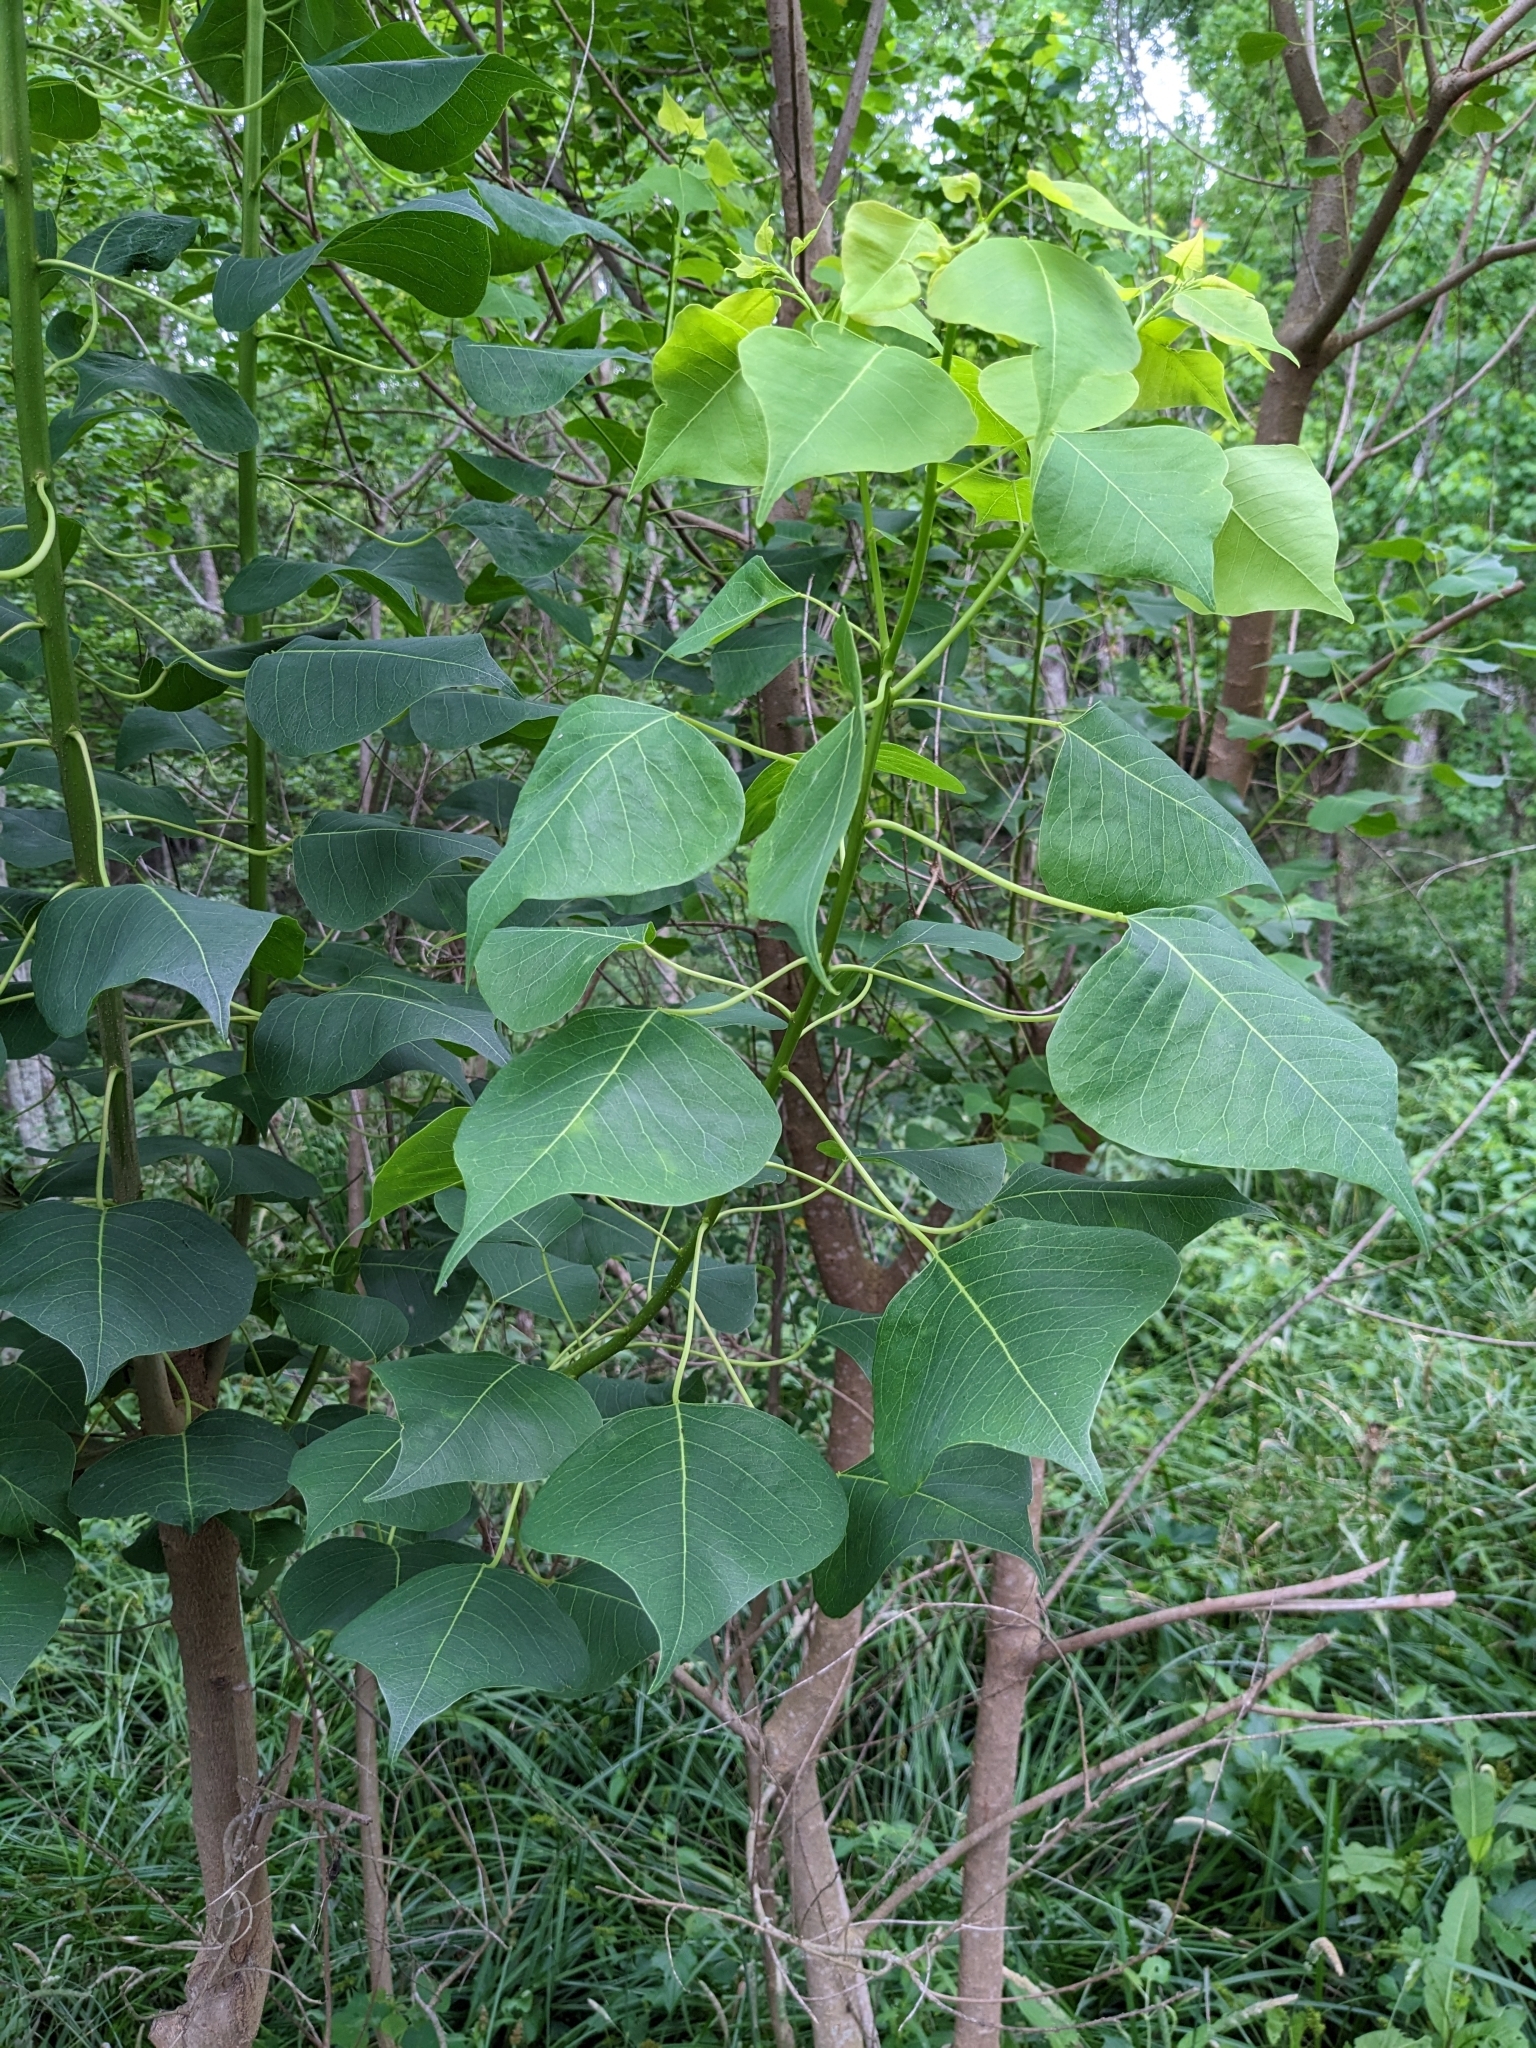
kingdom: Plantae
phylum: Tracheophyta
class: Magnoliopsida
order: Malpighiales
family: Euphorbiaceae
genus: Triadica
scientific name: Triadica sebifera
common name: Chinese tallow
